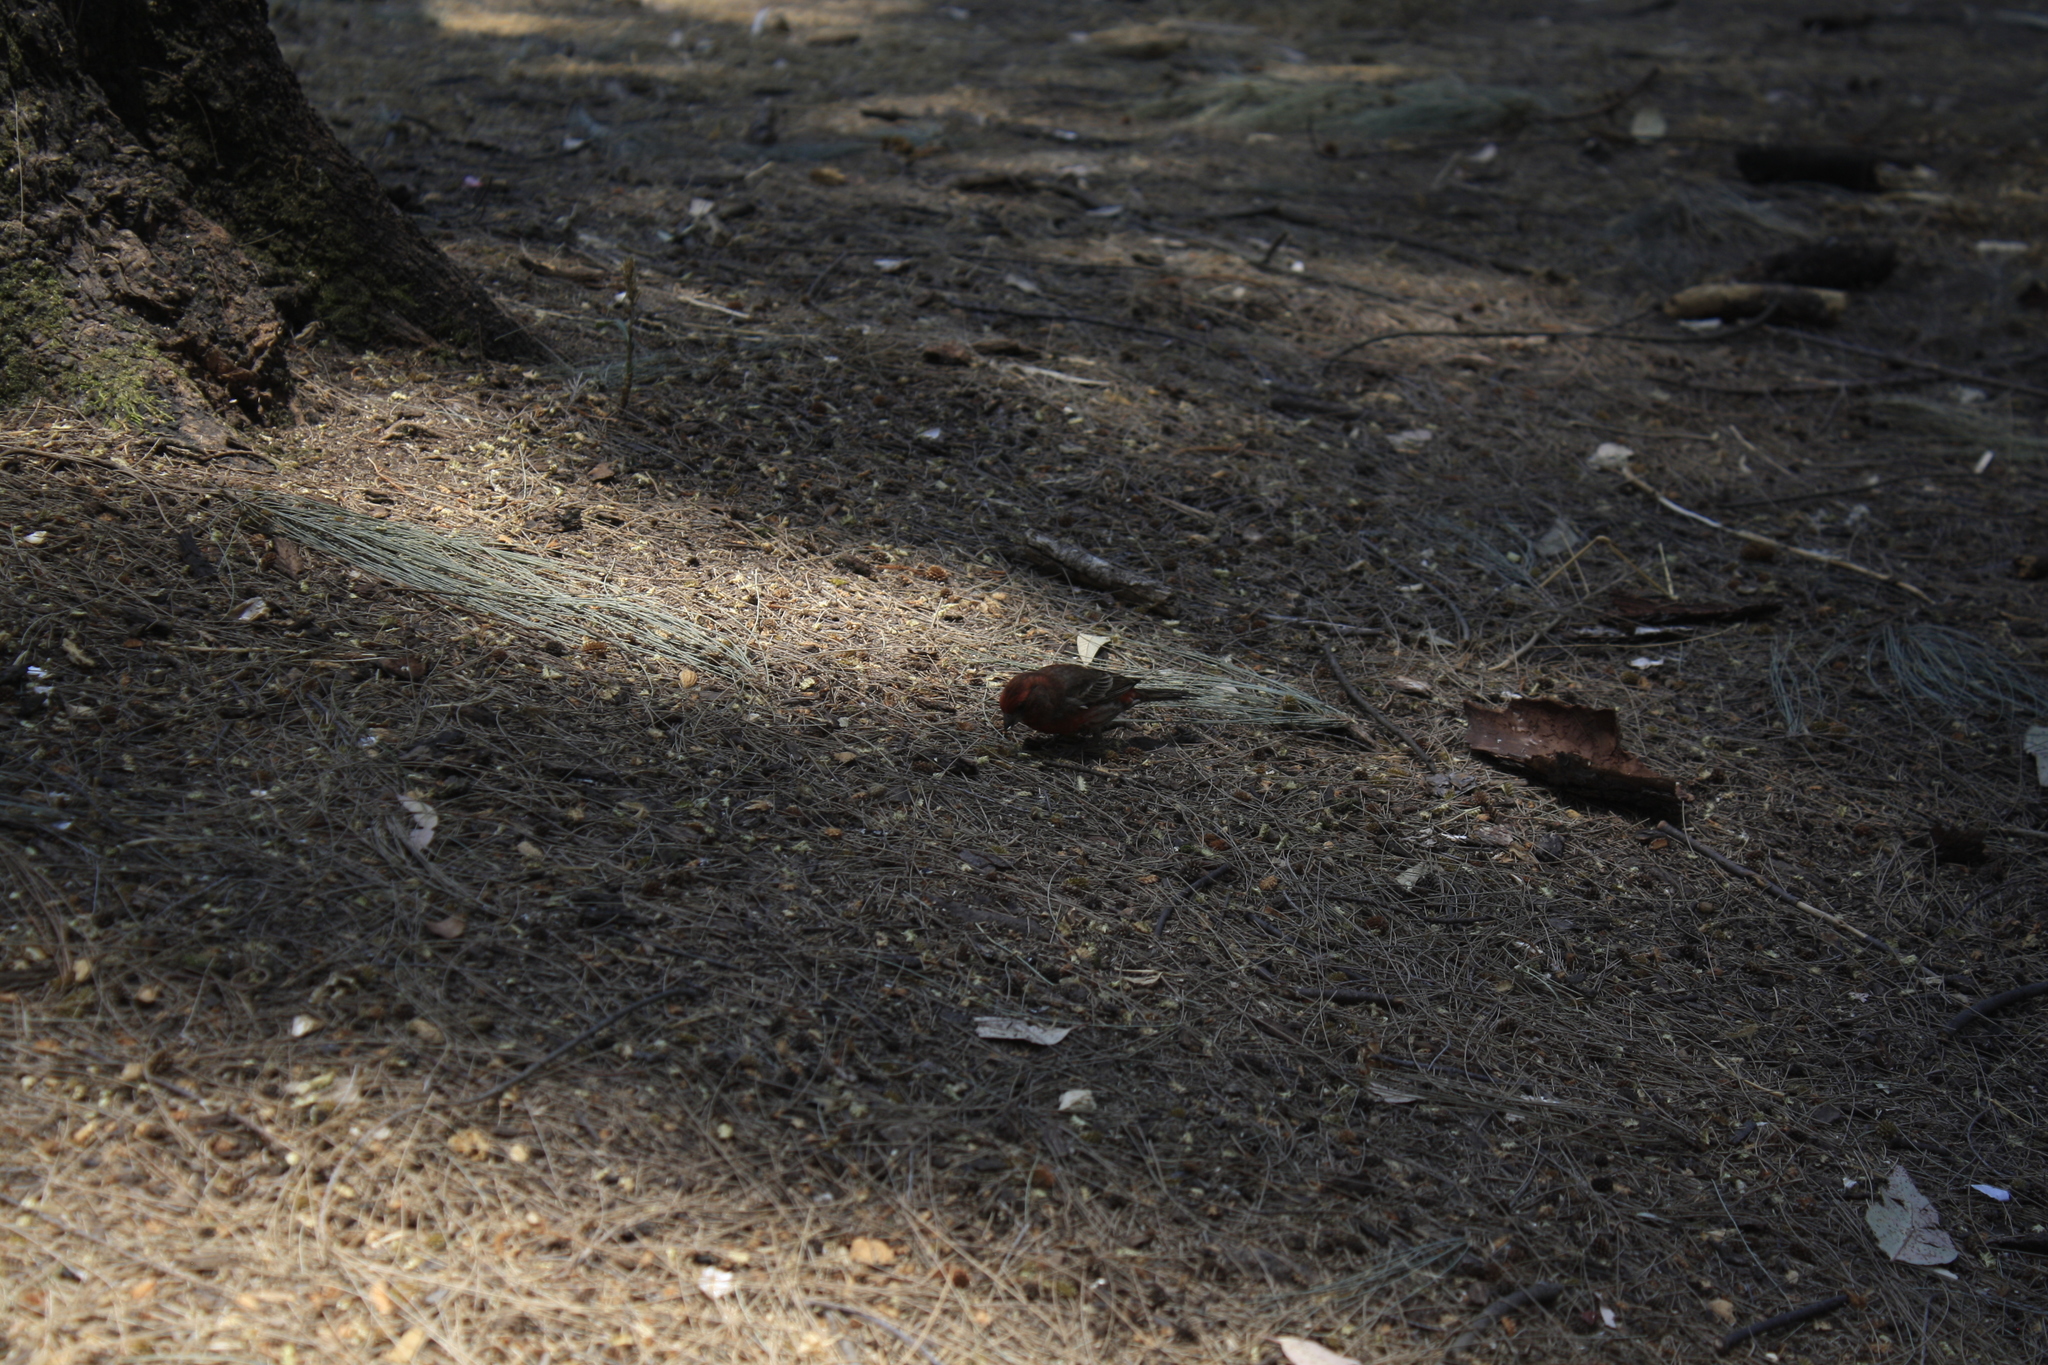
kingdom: Animalia
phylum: Chordata
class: Aves
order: Passeriformes
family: Fringillidae
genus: Haemorhous
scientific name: Haemorhous mexicanus
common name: House finch
